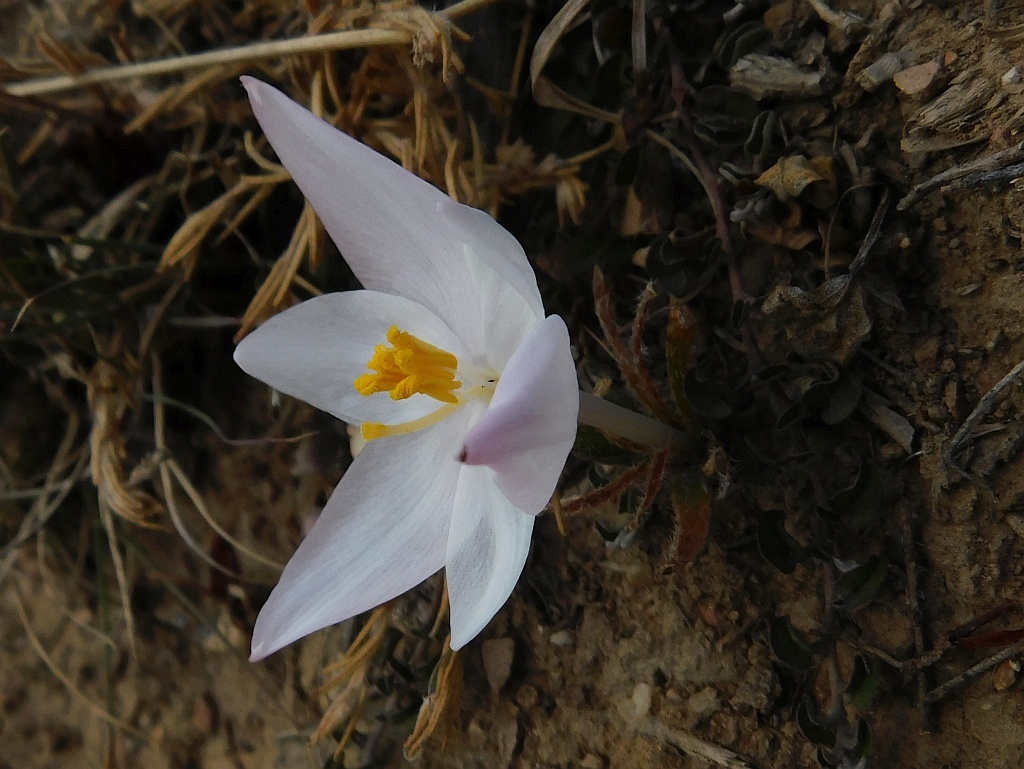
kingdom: Plantae
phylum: Tracheophyta
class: Liliopsida
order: Asparagales
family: Amaryllidaceae
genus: Gethyllis
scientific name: Gethyllis villosa
